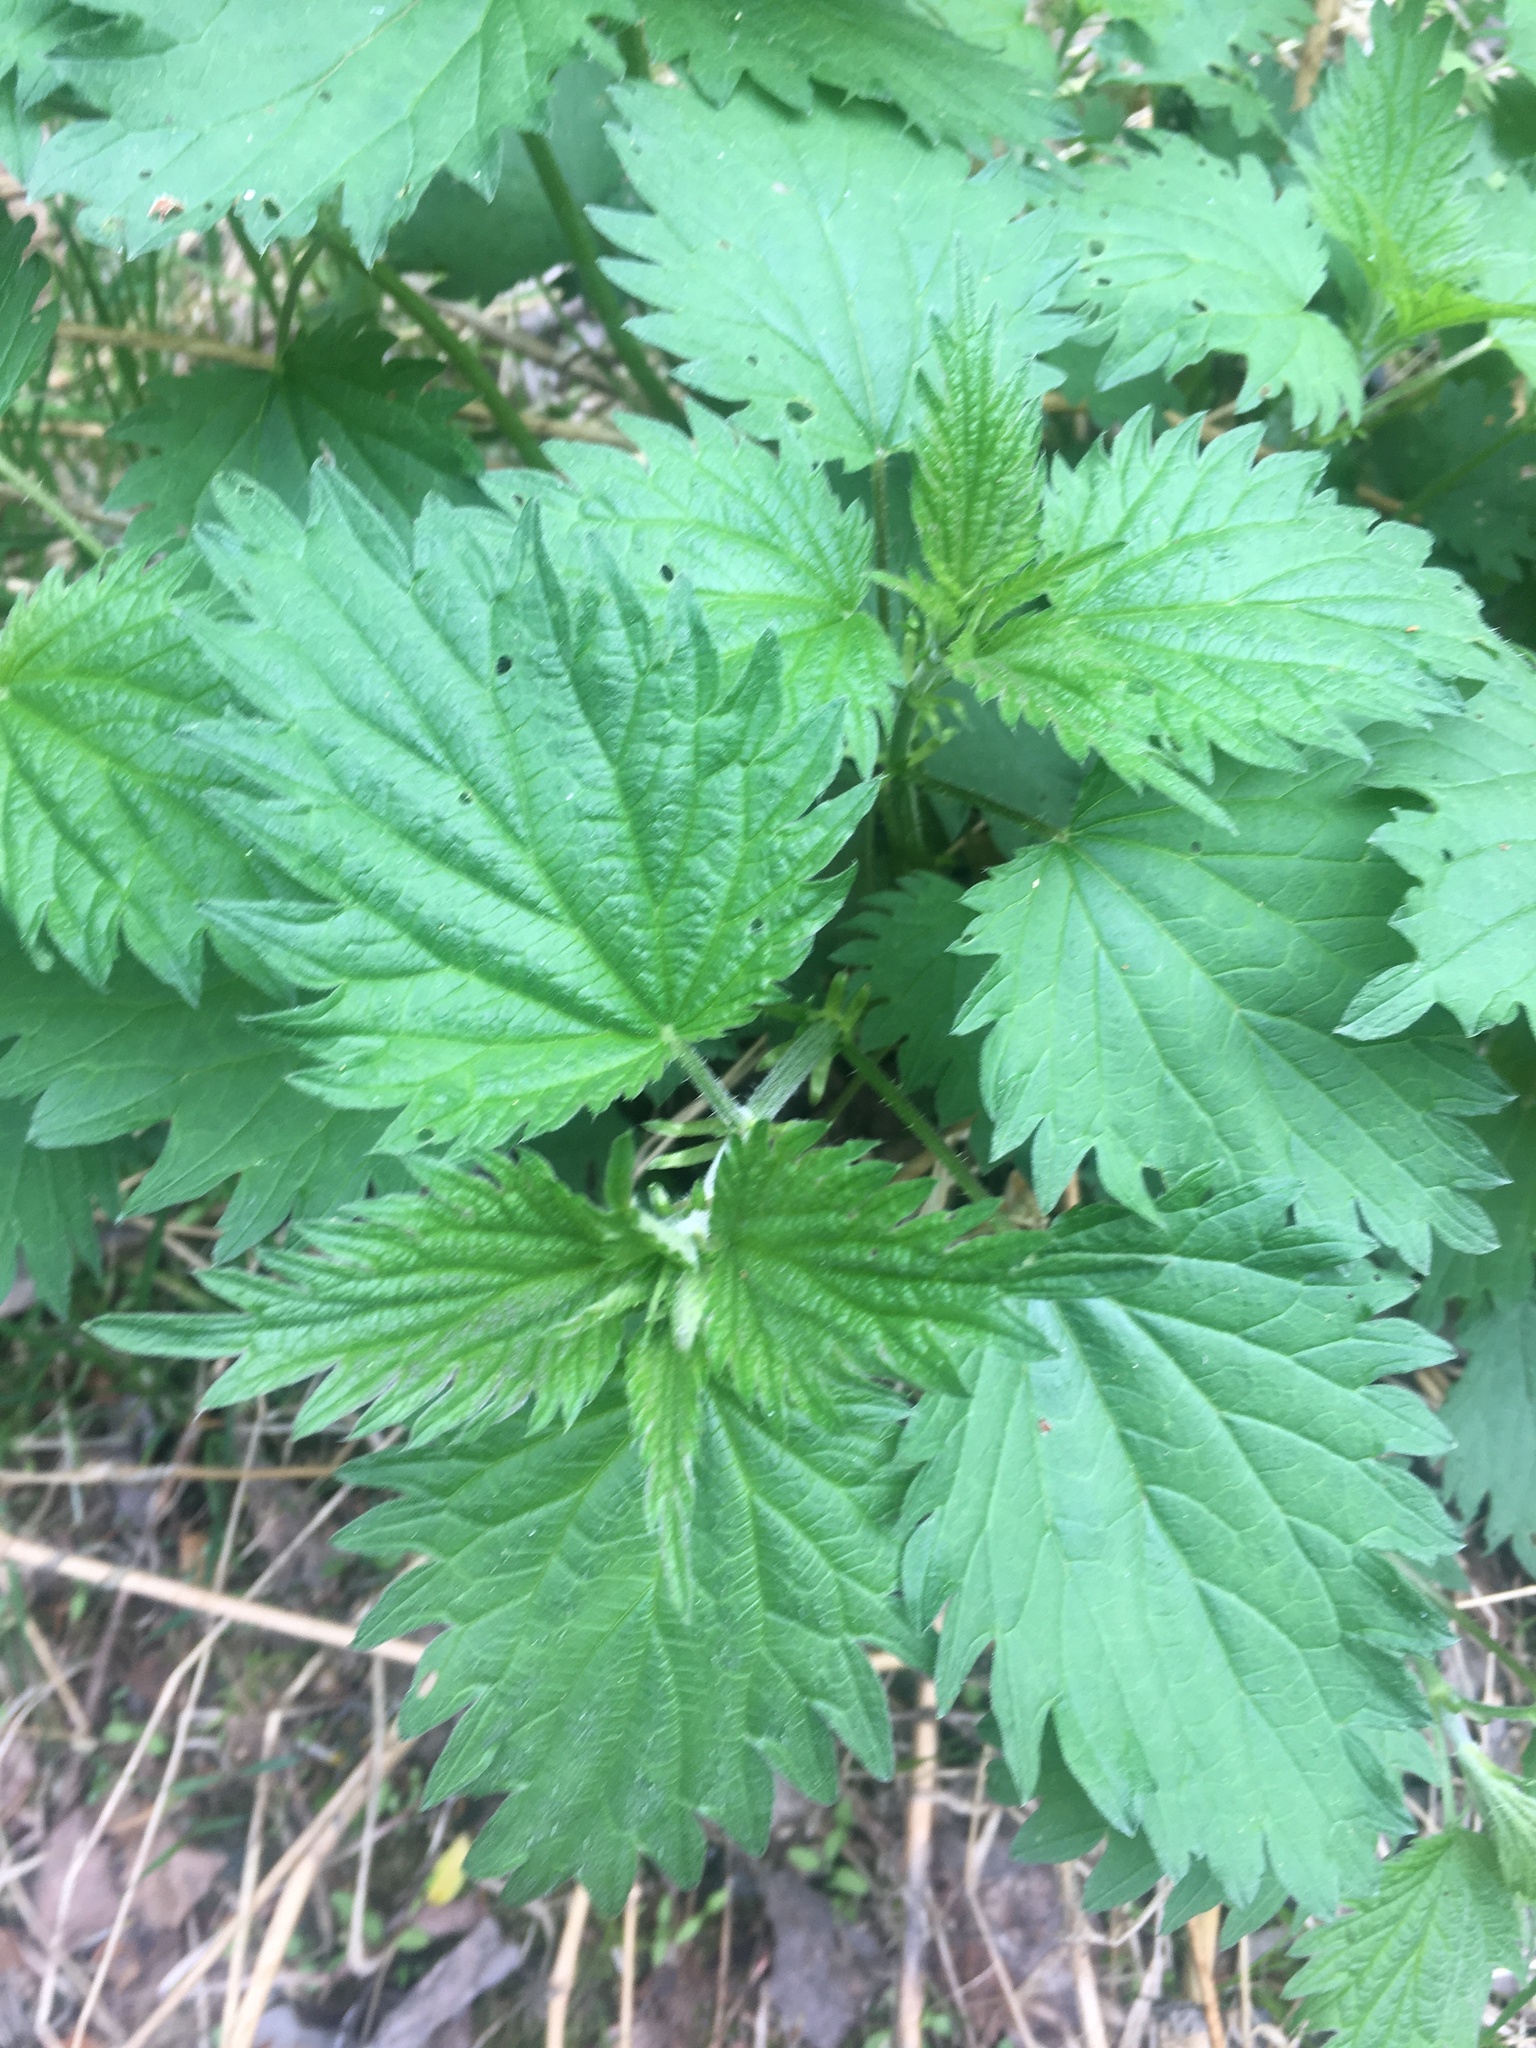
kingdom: Plantae
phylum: Tracheophyta
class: Magnoliopsida
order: Rosales
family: Urticaceae
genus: Urtica
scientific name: Urtica dioica
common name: Common nettle
